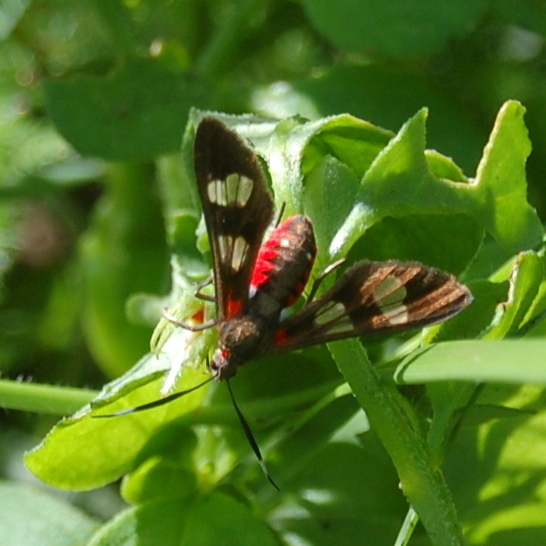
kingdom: Animalia
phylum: Arthropoda
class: Insecta
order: Lepidoptera
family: Erebidae
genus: Phoenicoprocta
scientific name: Phoenicoprocta teda
